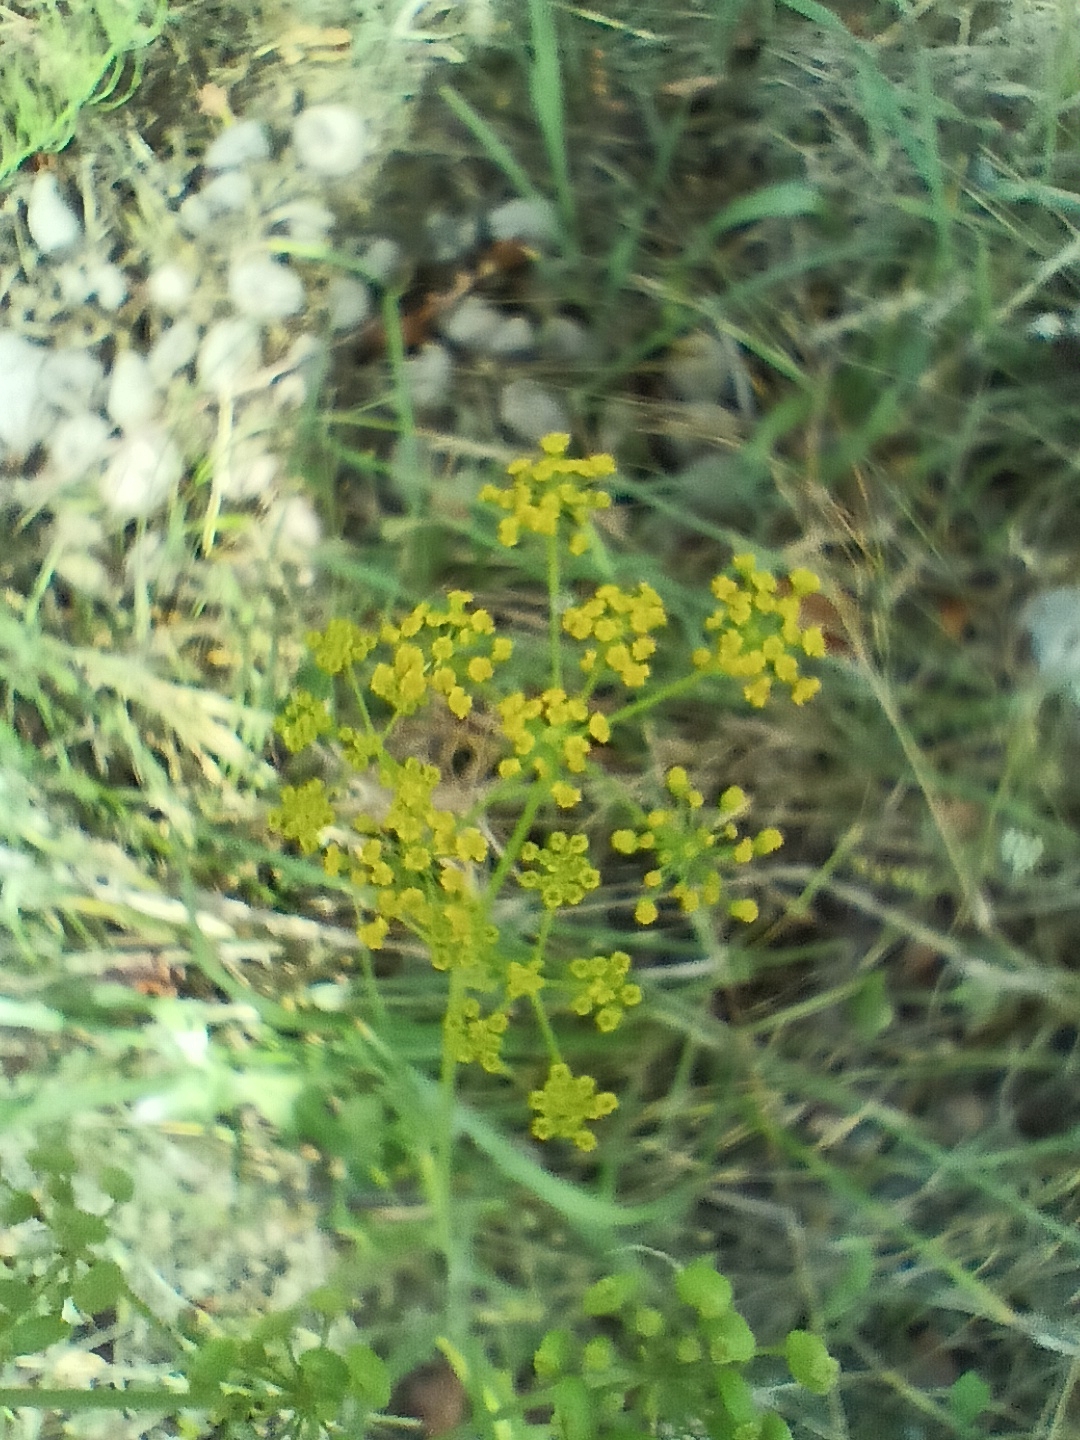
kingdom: Plantae
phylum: Tracheophyta
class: Magnoliopsida
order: Apiales
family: Apiaceae
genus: Pastinaca
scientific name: Pastinaca sativa
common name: Wild parsnip
